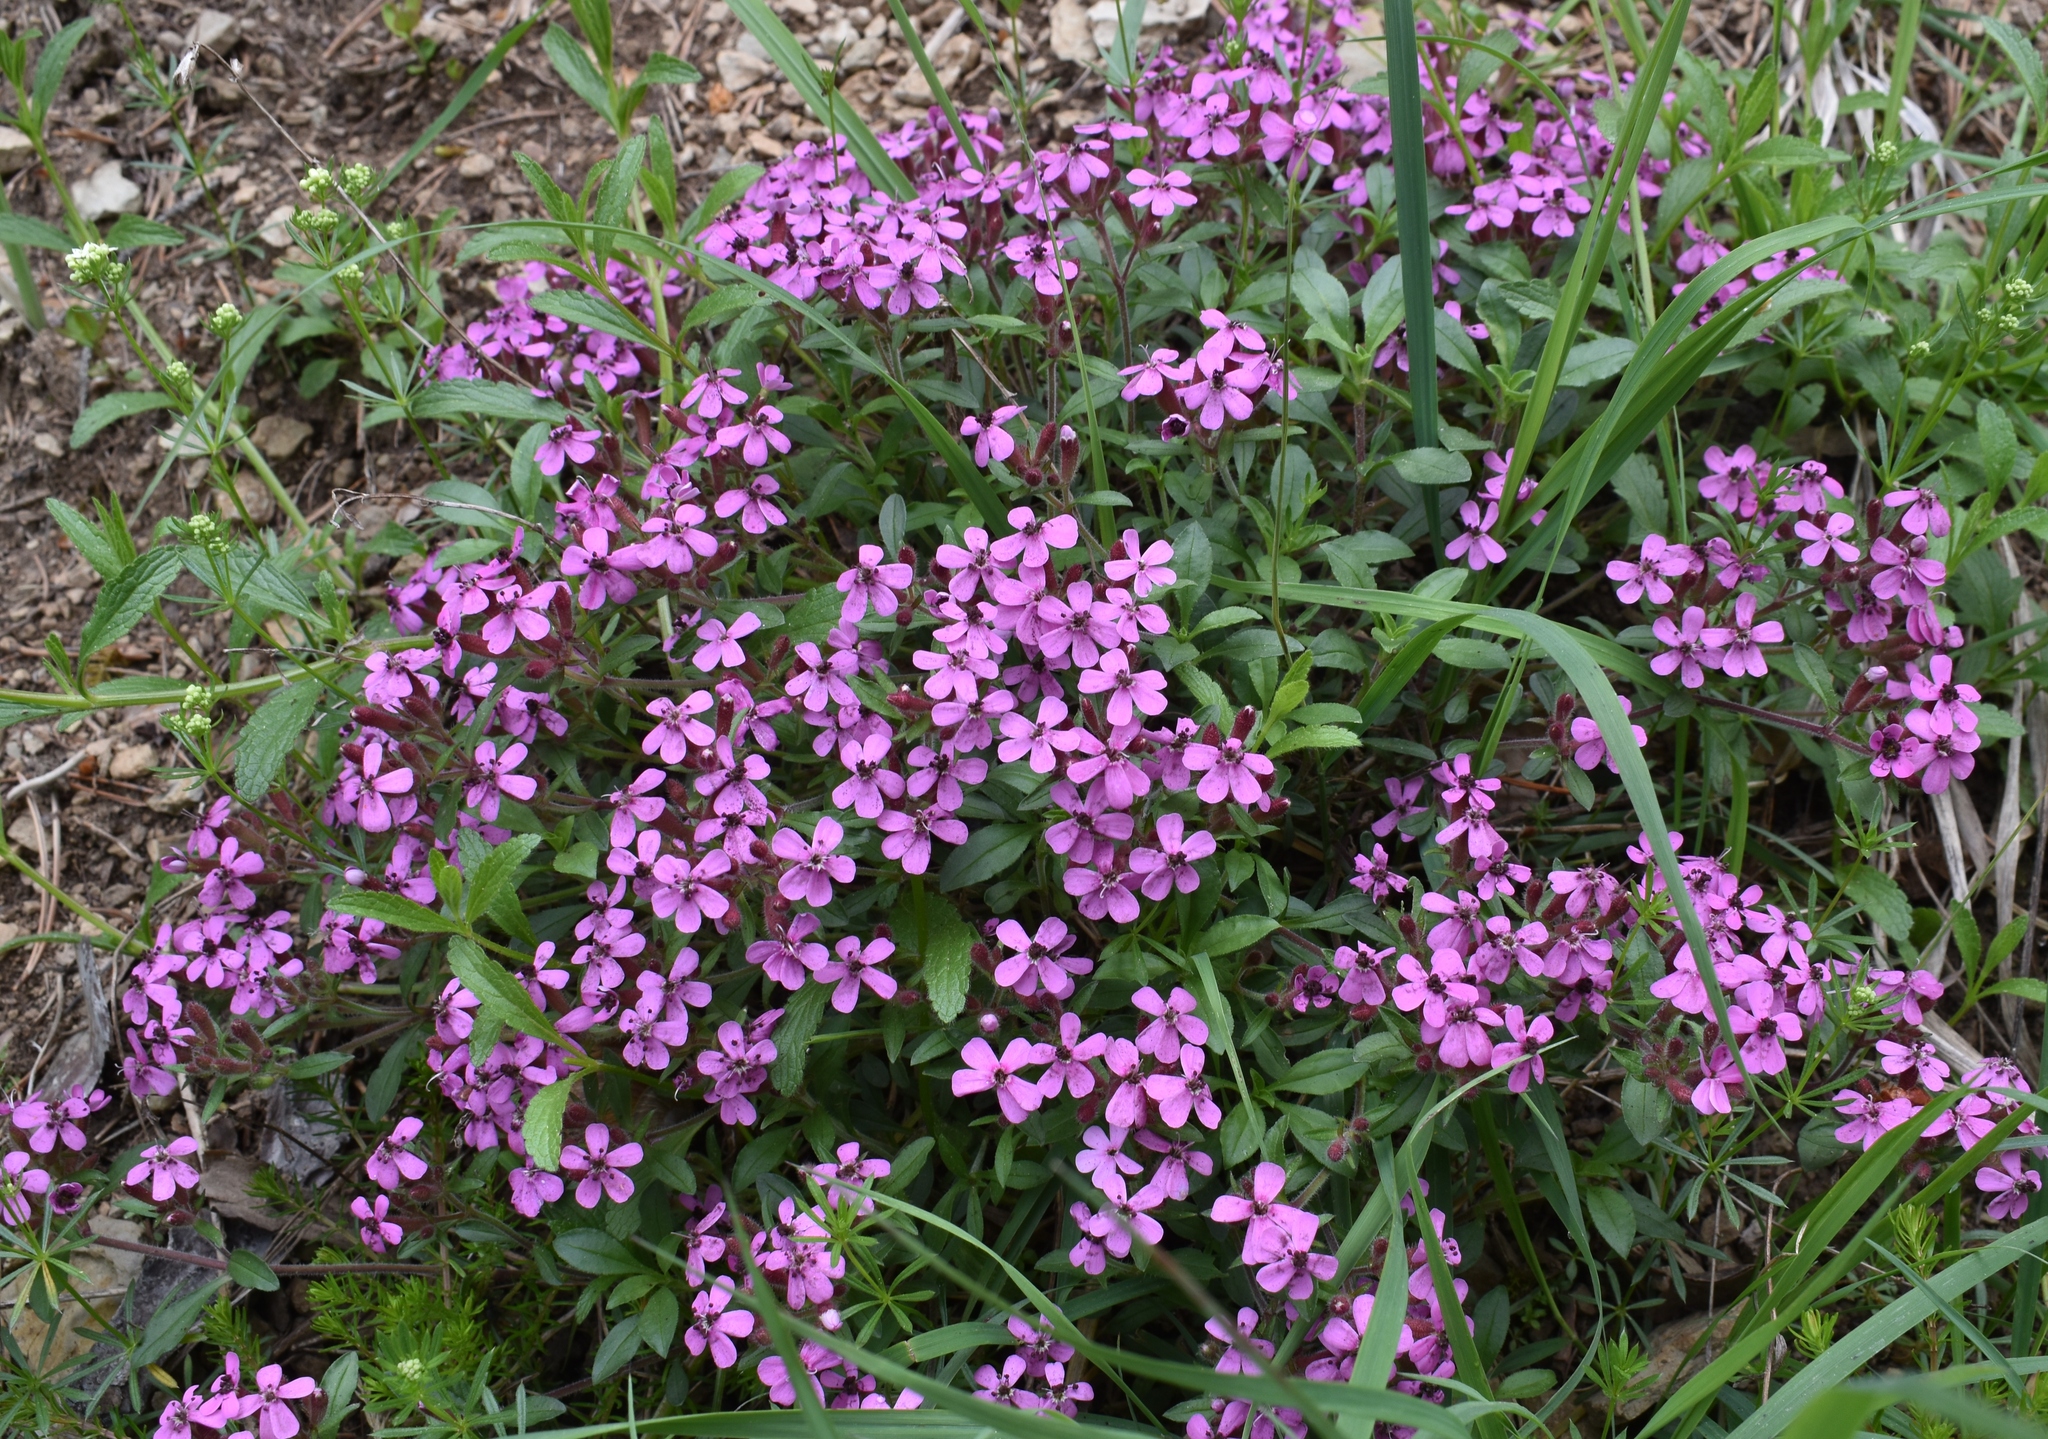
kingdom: Plantae
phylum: Tracheophyta
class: Magnoliopsida
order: Caryophyllales
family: Caryophyllaceae
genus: Saponaria
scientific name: Saponaria ocymoides
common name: Rock soapwort
